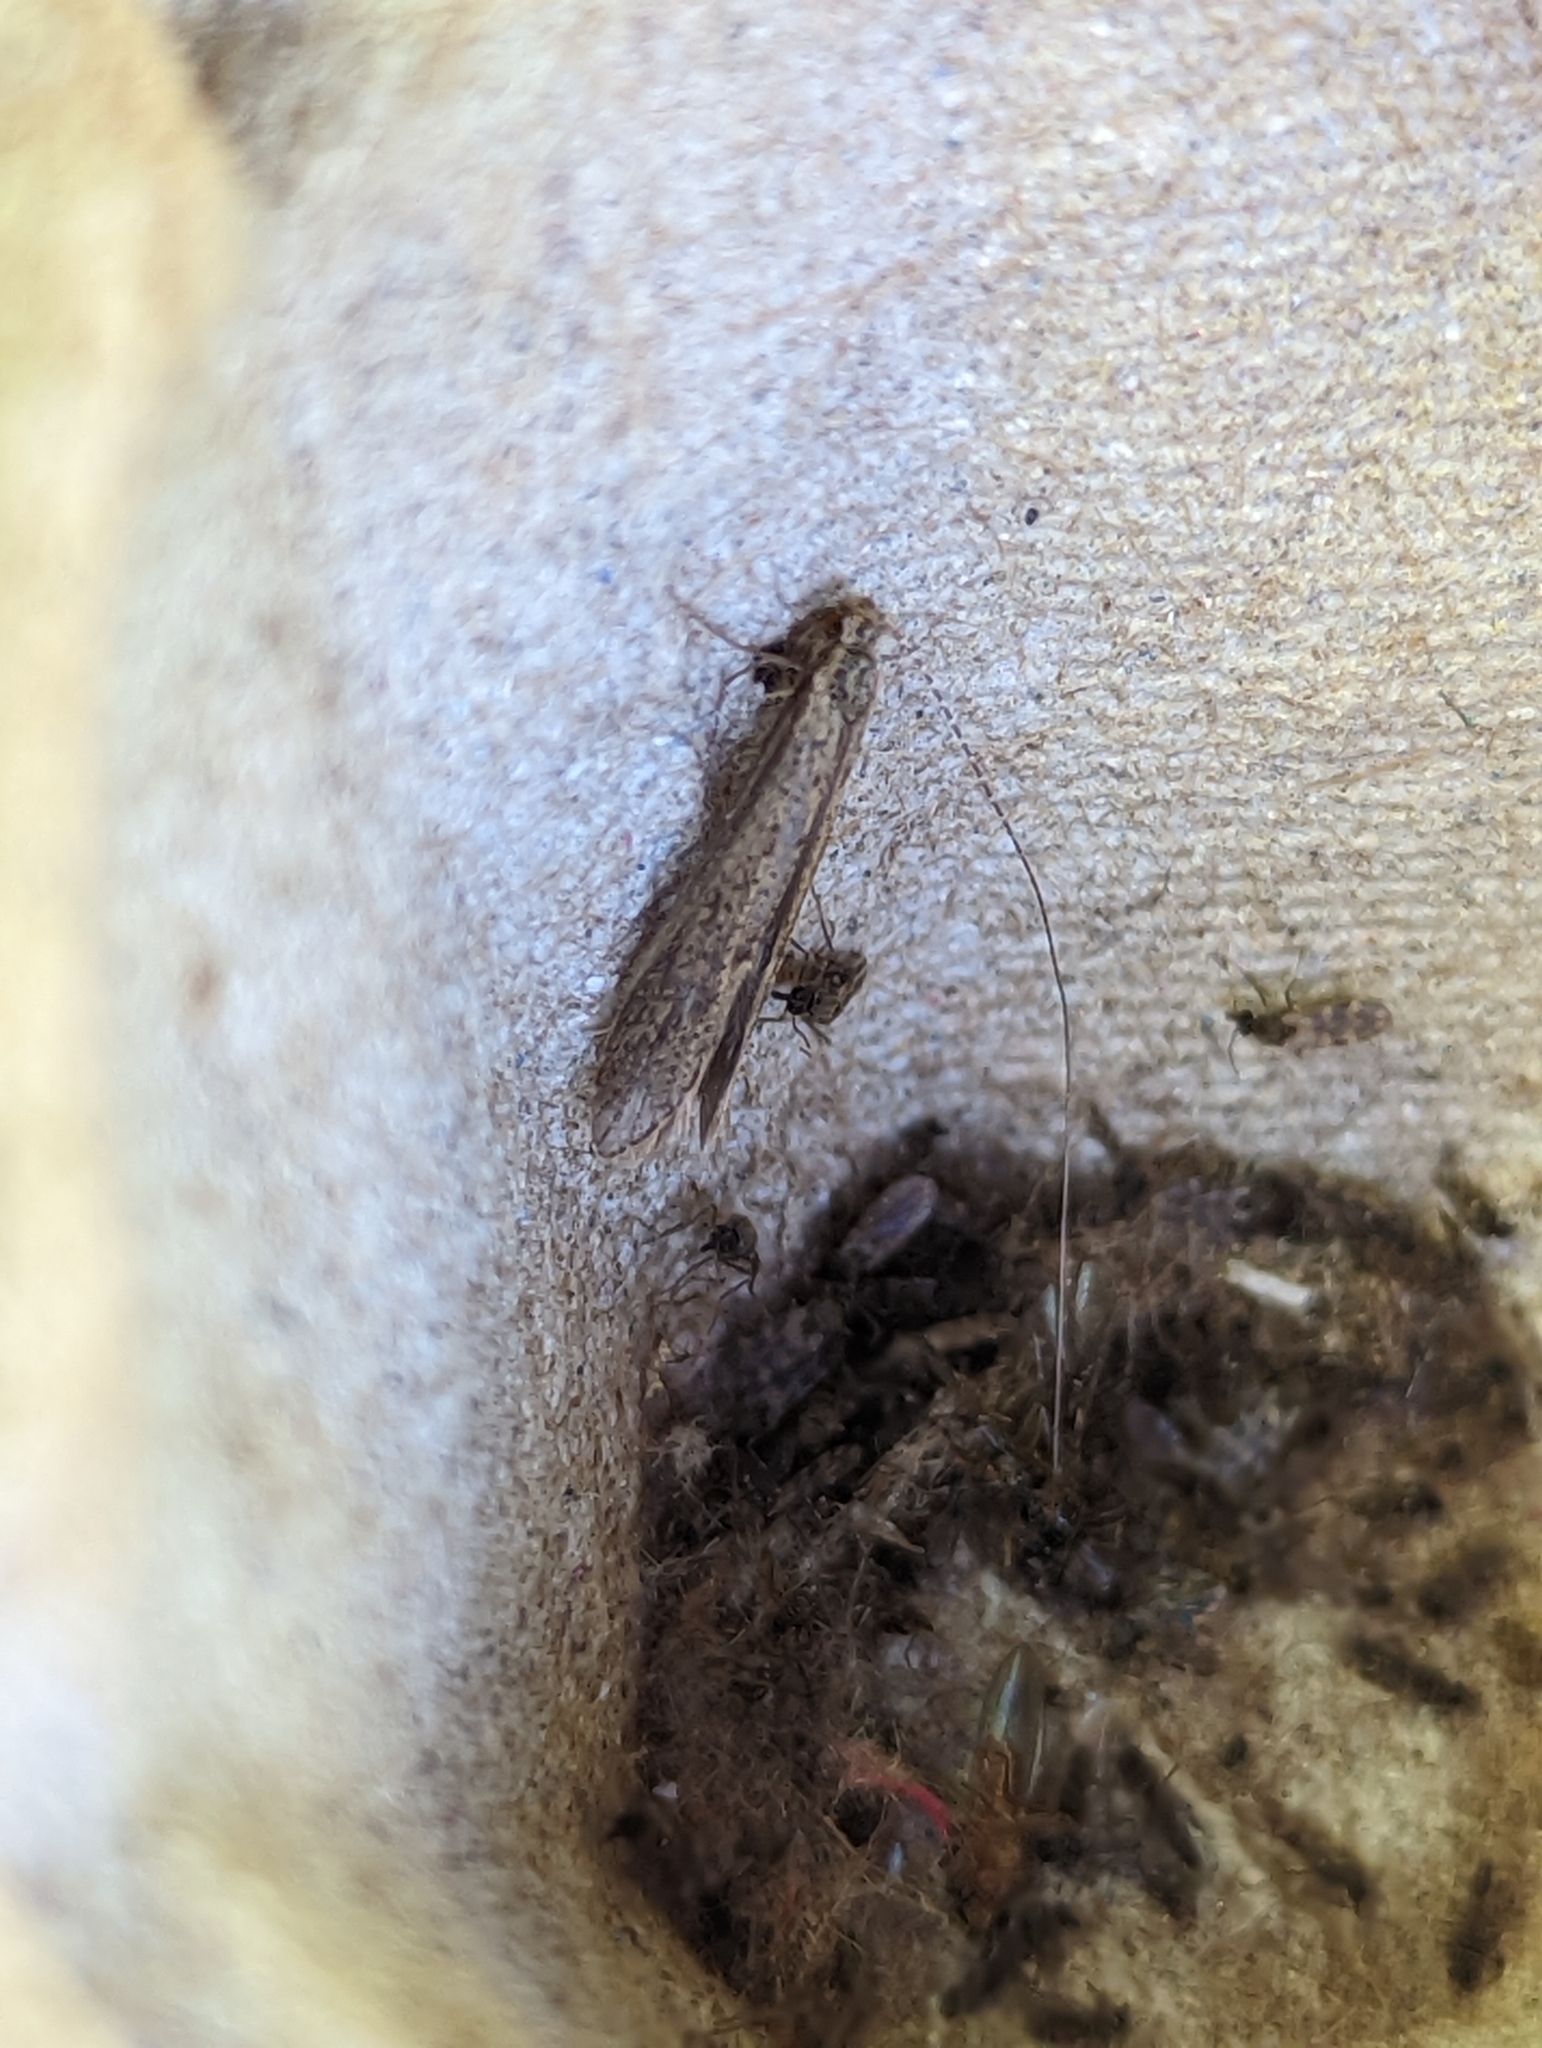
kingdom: Animalia
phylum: Arthropoda
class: Insecta
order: Trichoptera
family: Leptoceridae
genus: Leptocerus
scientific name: Leptocerus tineiformis
